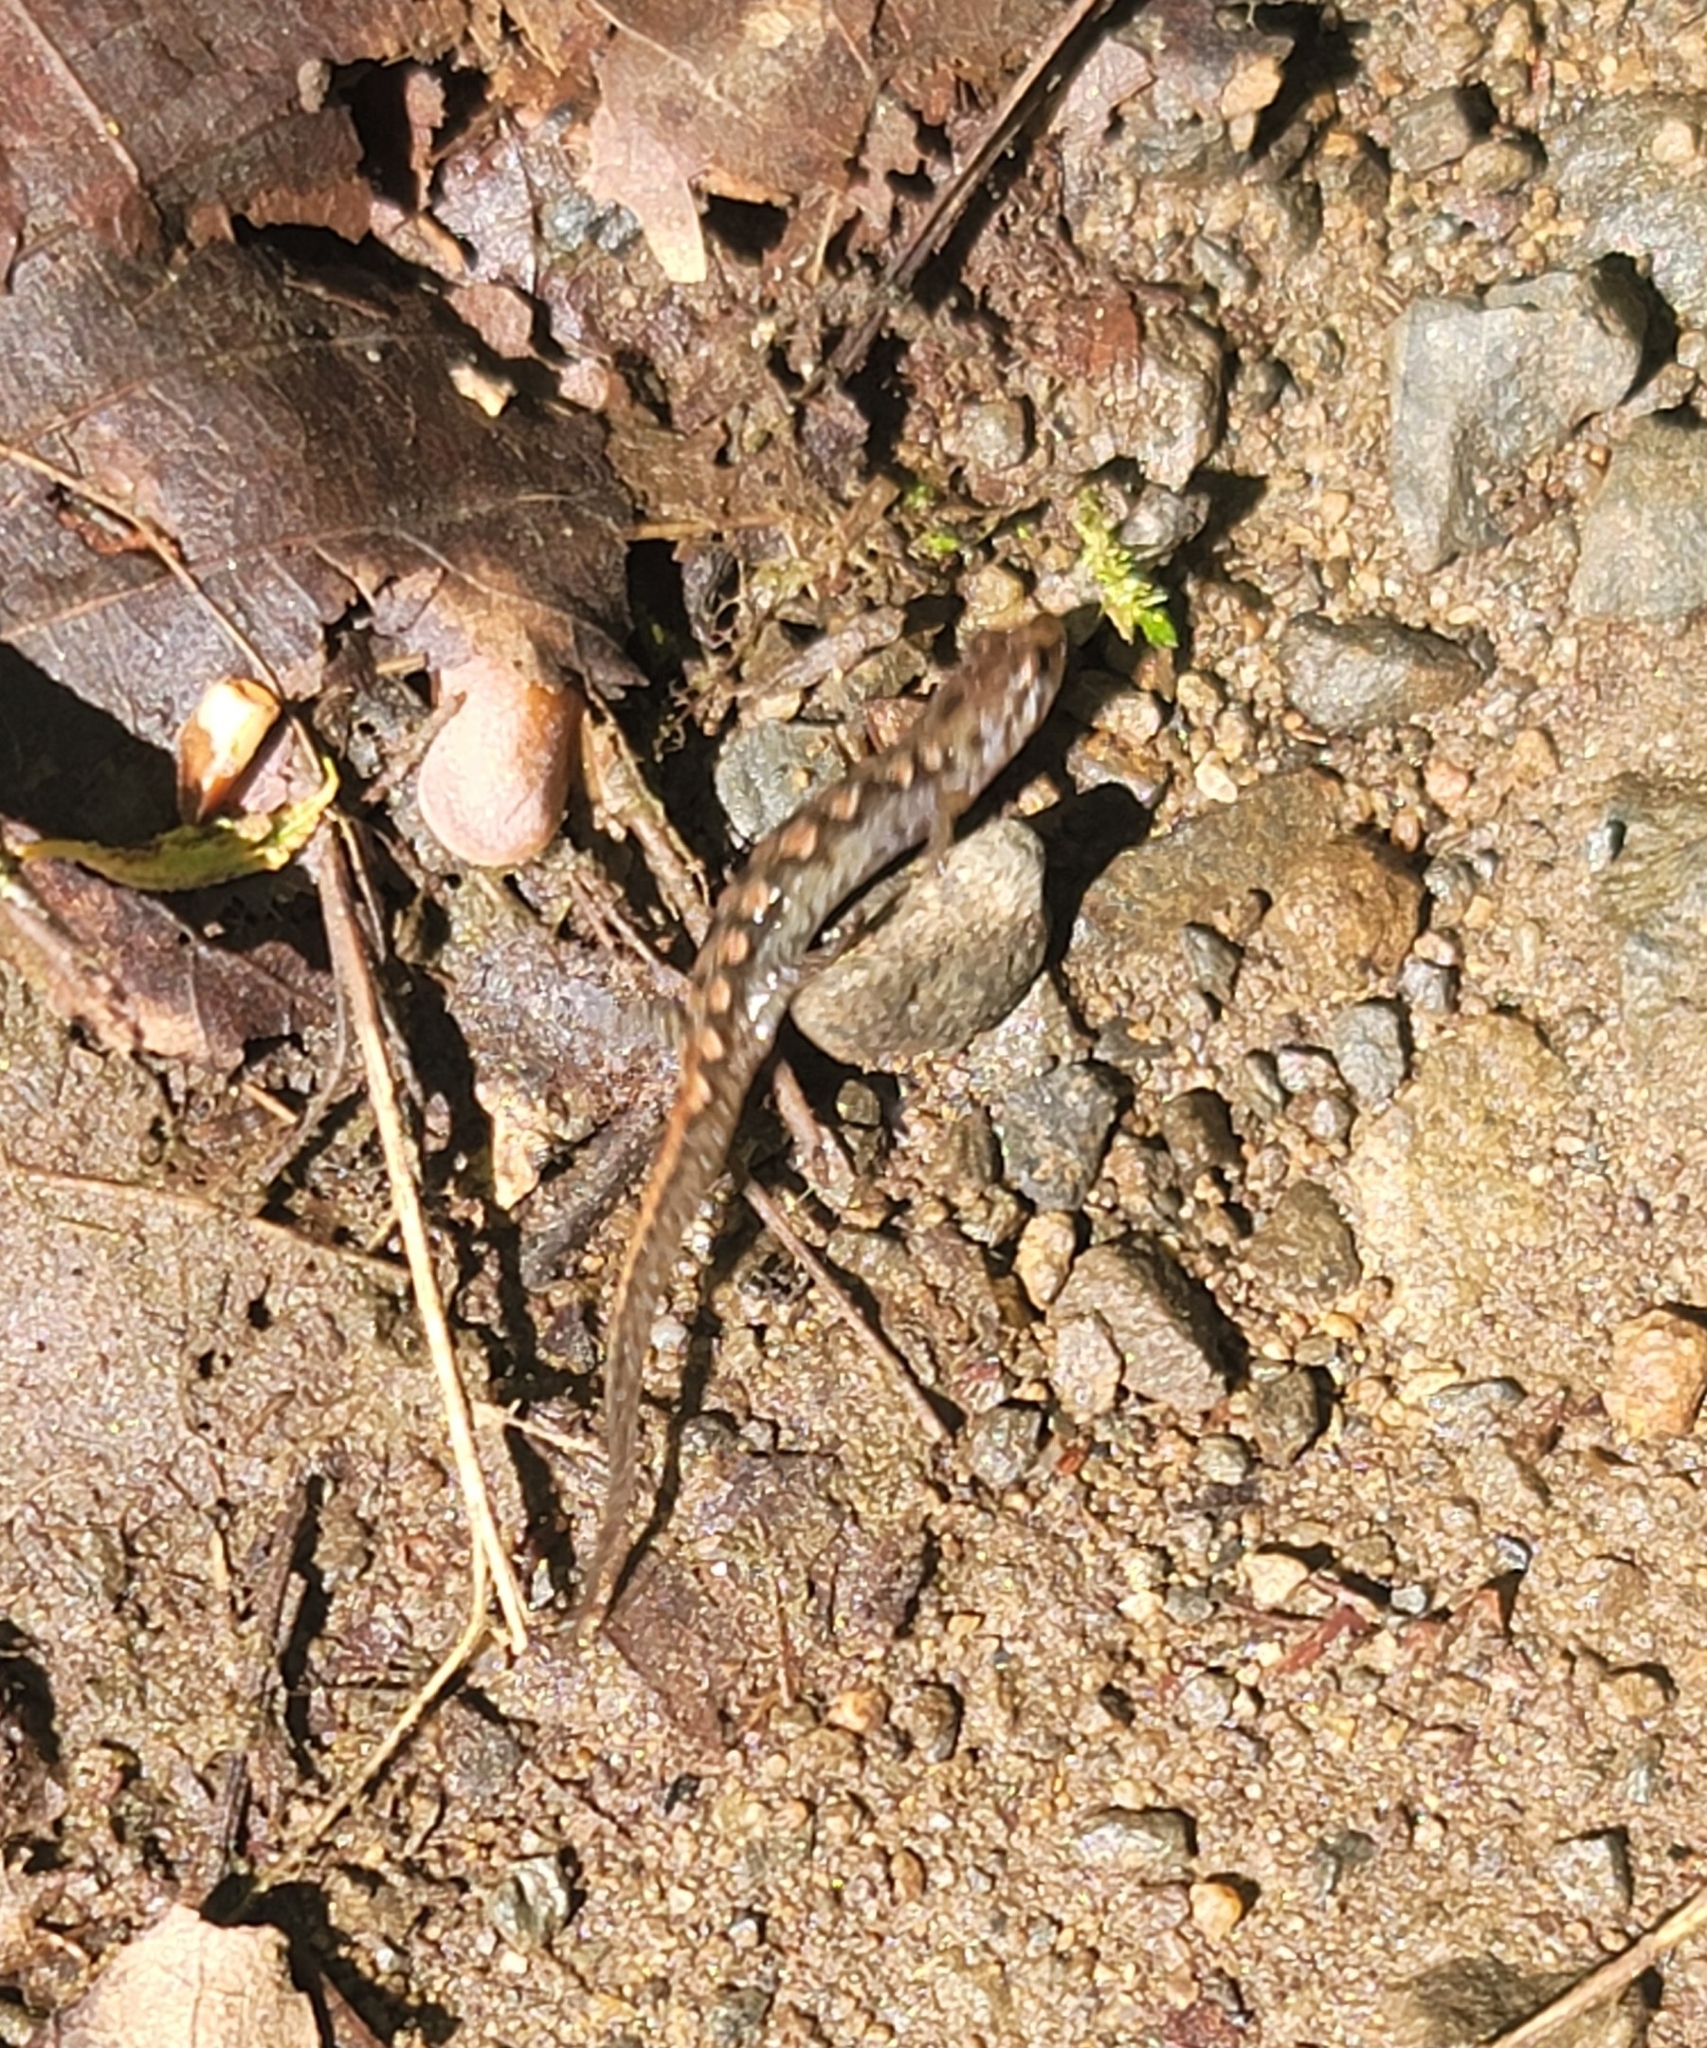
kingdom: Animalia
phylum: Chordata
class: Amphibia
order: Caudata
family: Plethodontidae
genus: Desmognathus
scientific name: Desmognathus monticola
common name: Seal salamander
